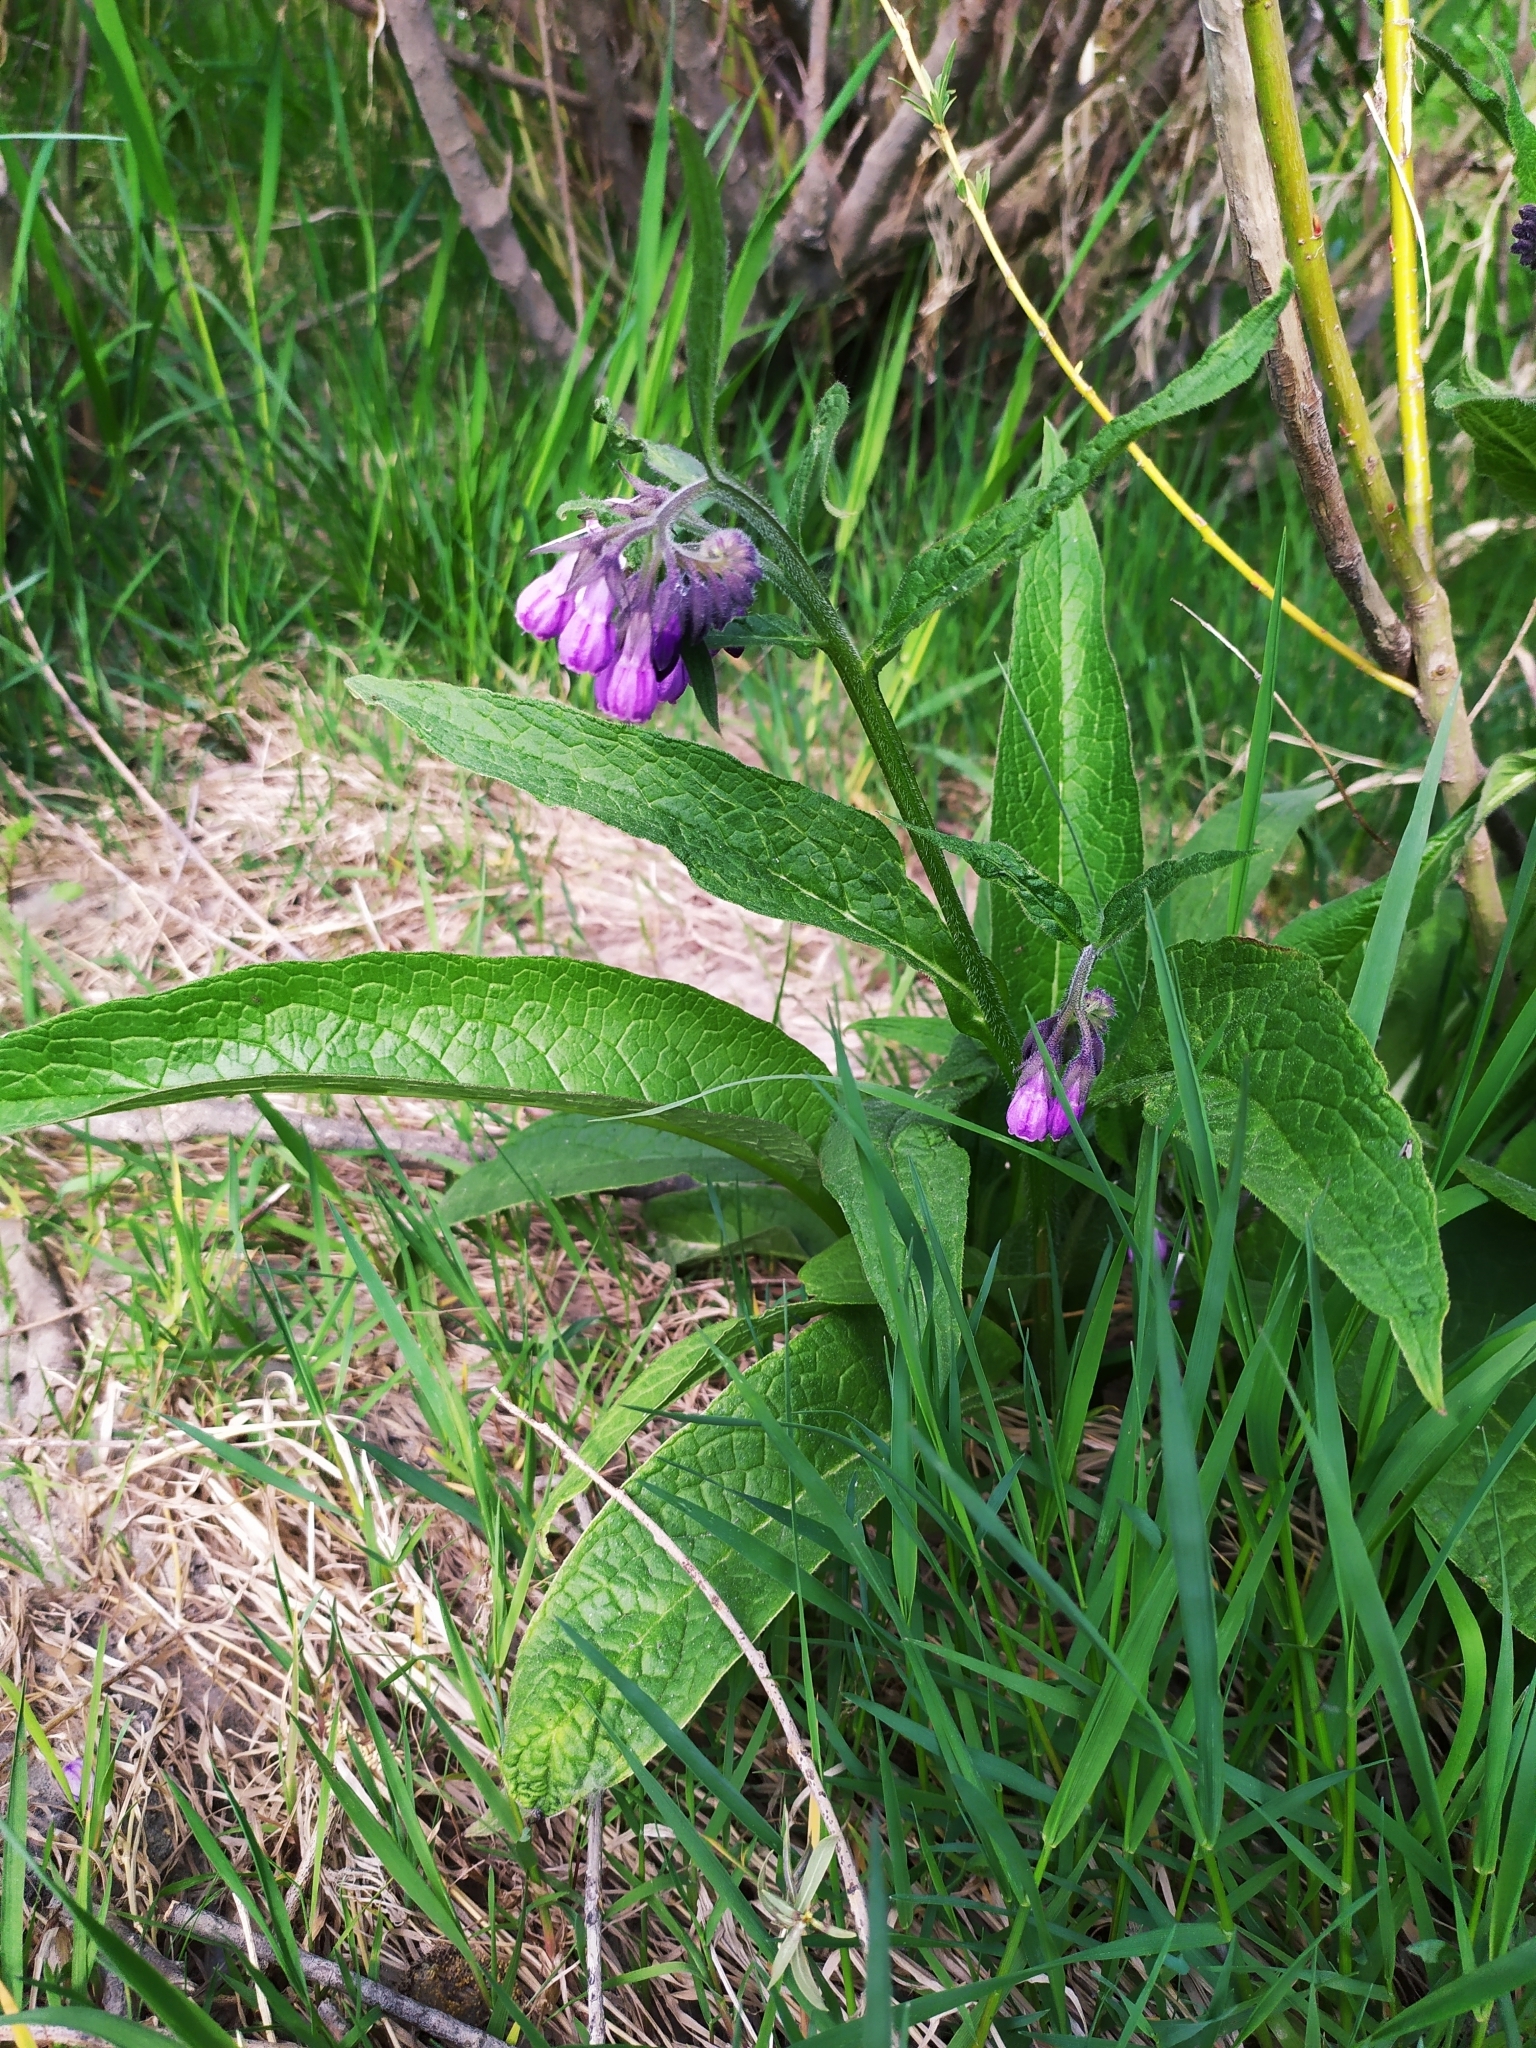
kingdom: Plantae
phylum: Tracheophyta
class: Magnoliopsida
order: Boraginales
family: Boraginaceae
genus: Symphytum
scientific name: Symphytum officinale
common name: Common comfrey
